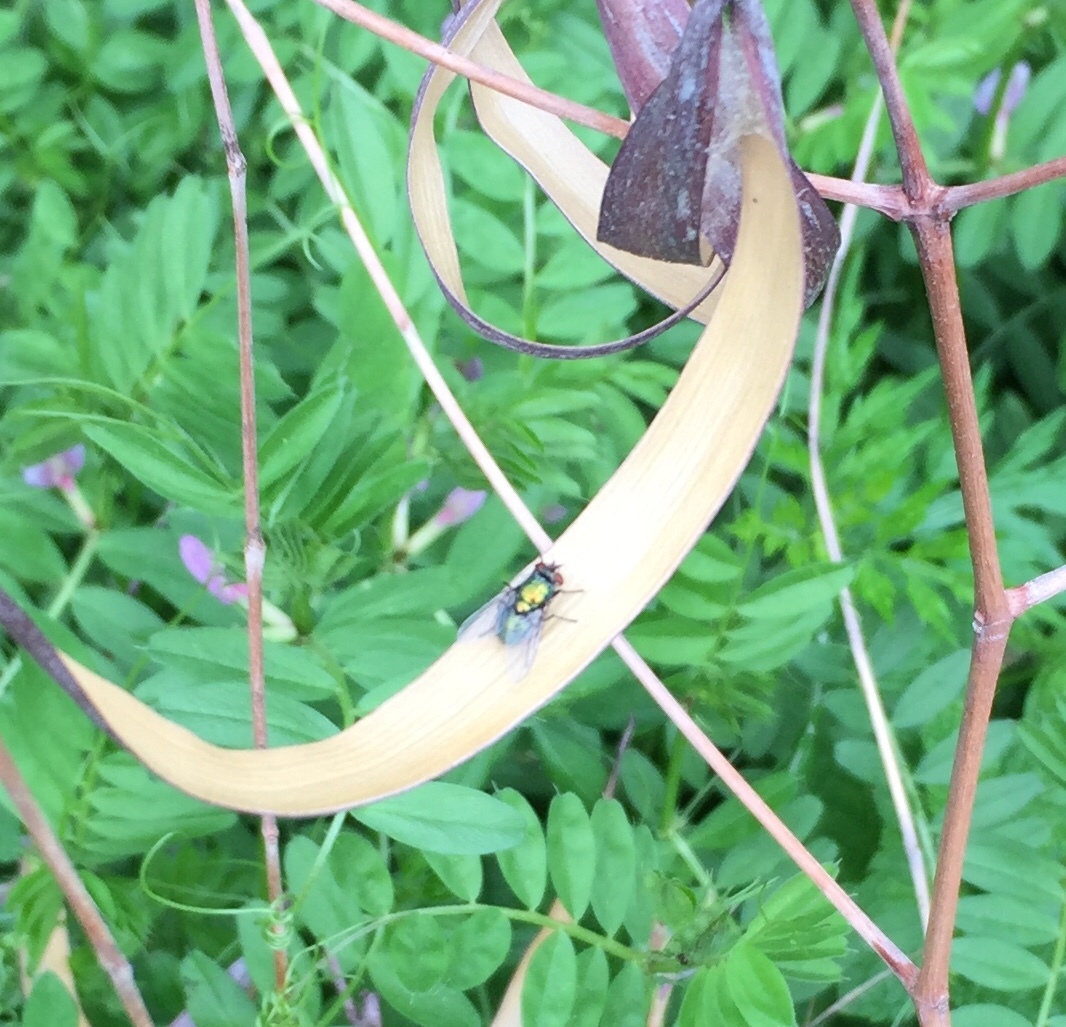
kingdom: Animalia
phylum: Arthropoda
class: Insecta
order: Diptera
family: Calliphoridae
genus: Lucilia
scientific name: Lucilia
